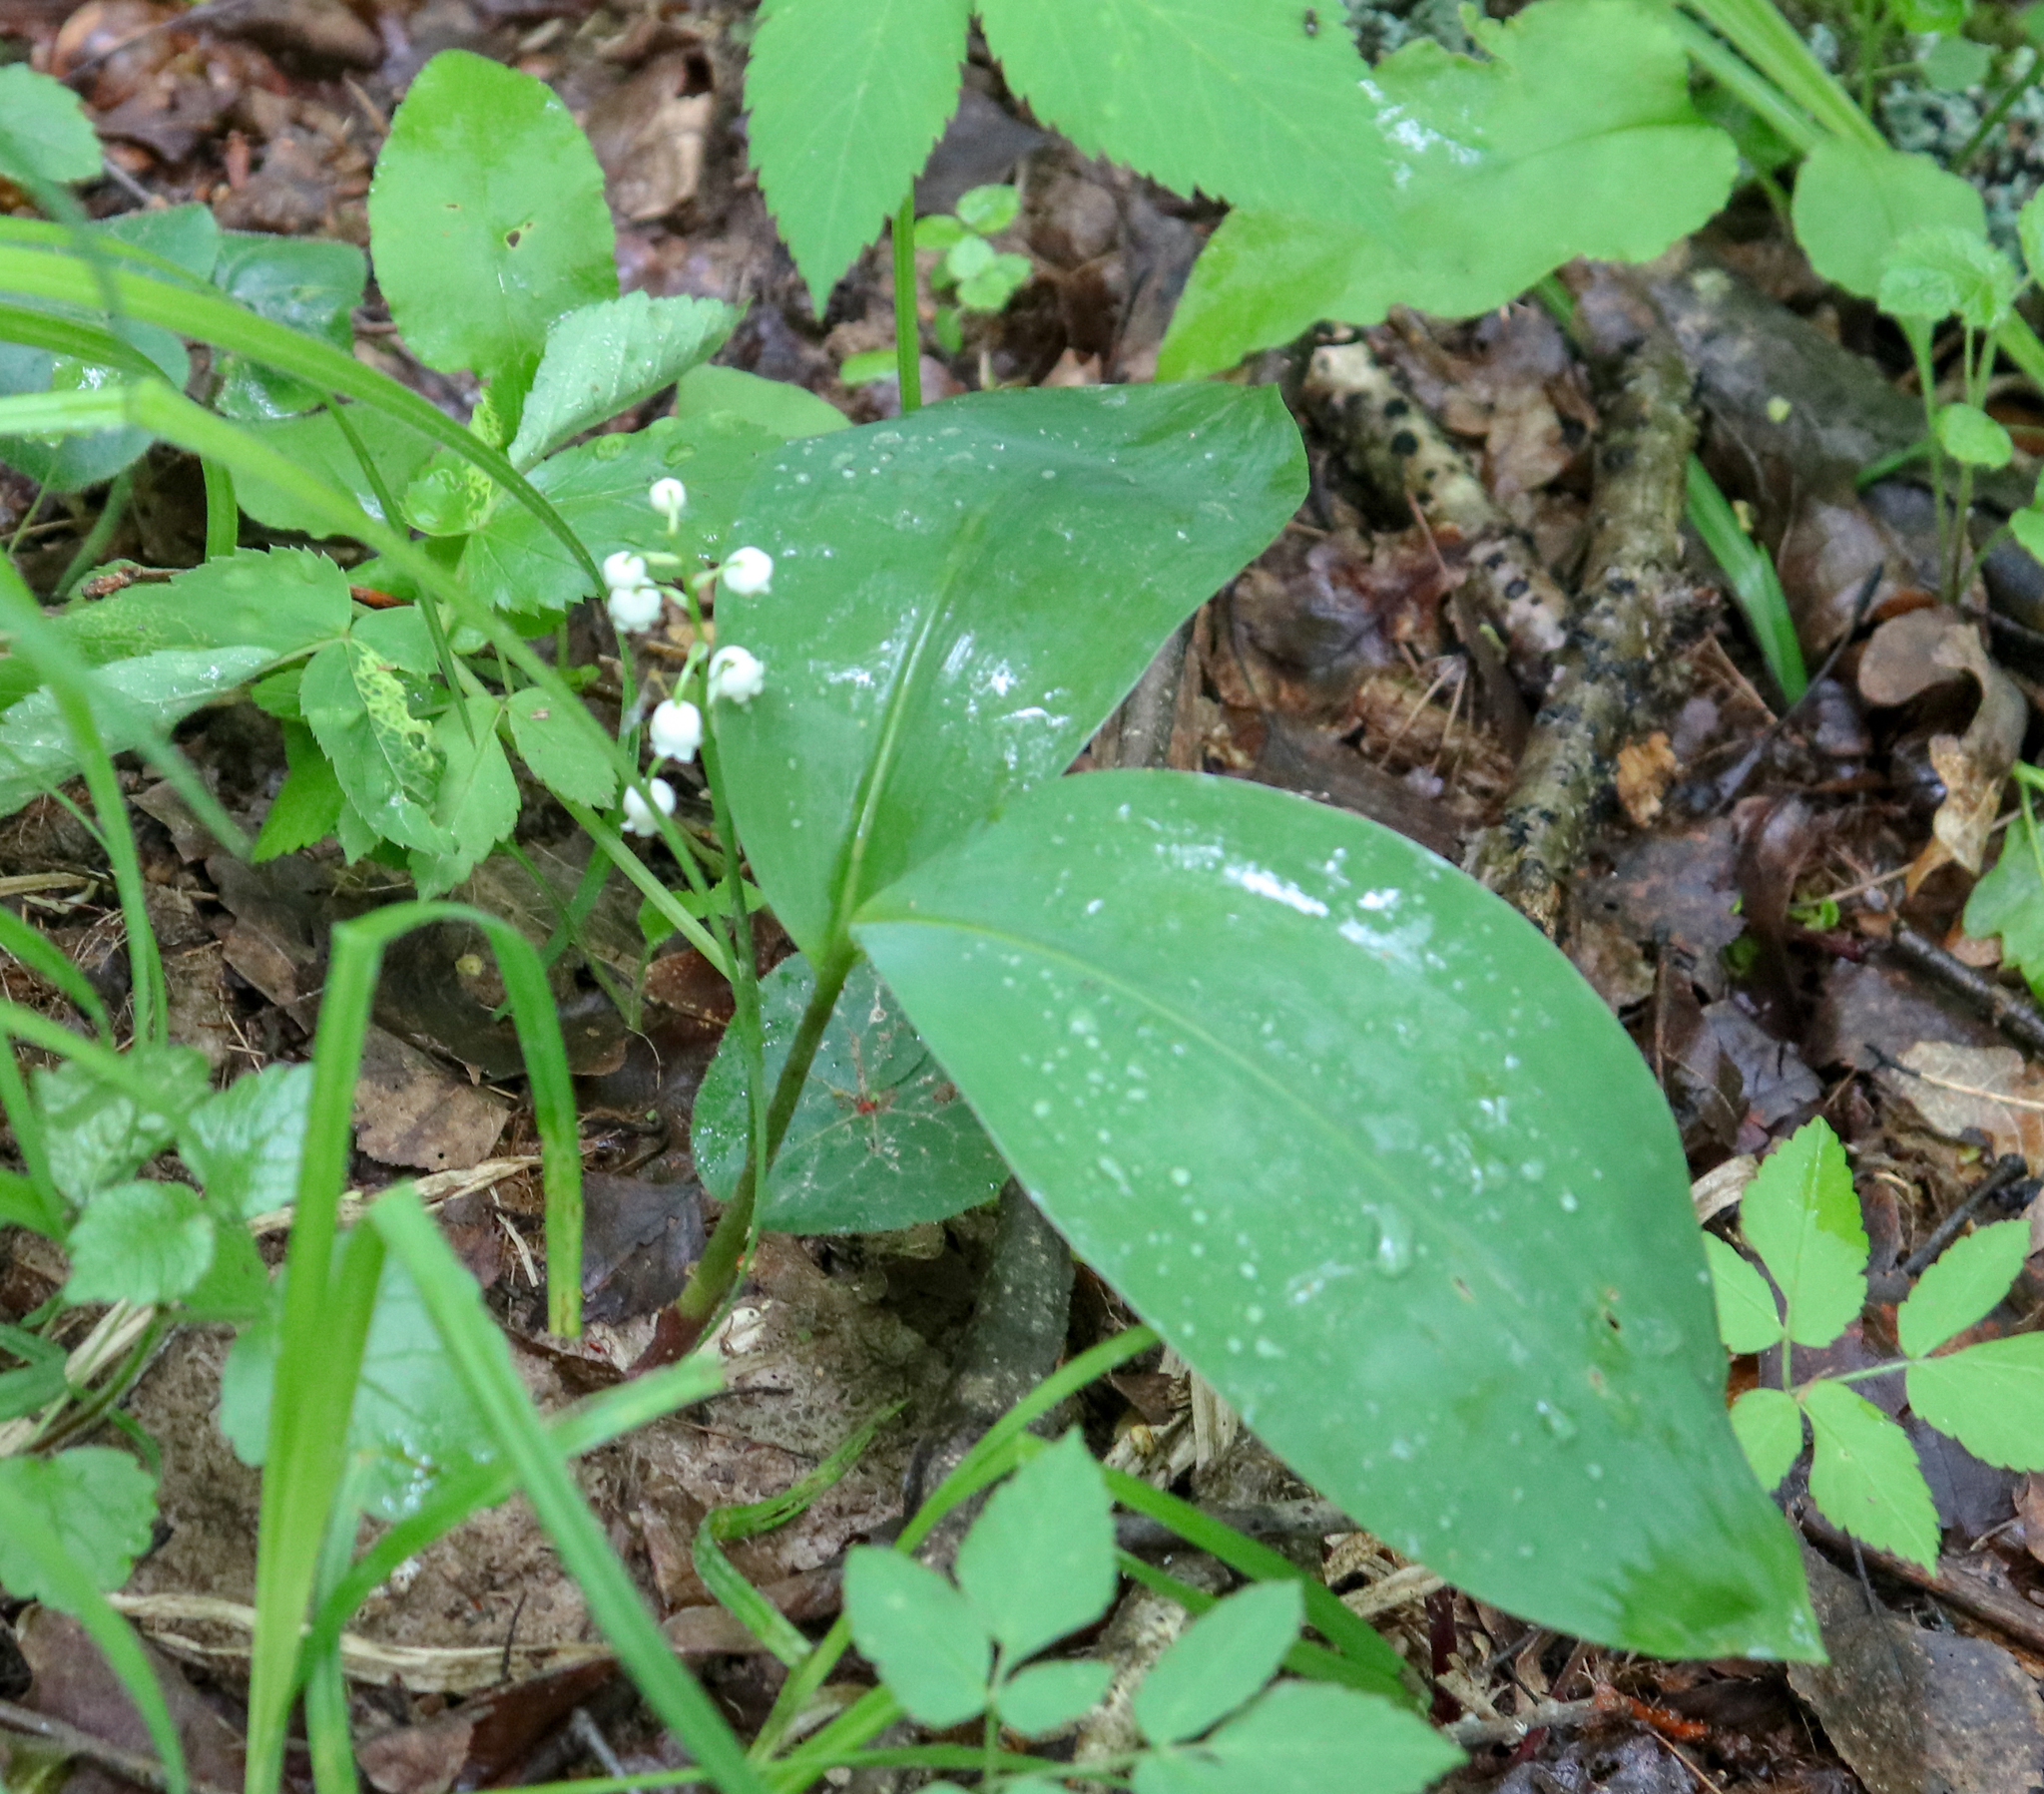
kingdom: Plantae
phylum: Tracheophyta
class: Liliopsida
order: Asparagales
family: Asparagaceae
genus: Convallaria
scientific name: Convallaria majalis
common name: Lily-of-the-valley
